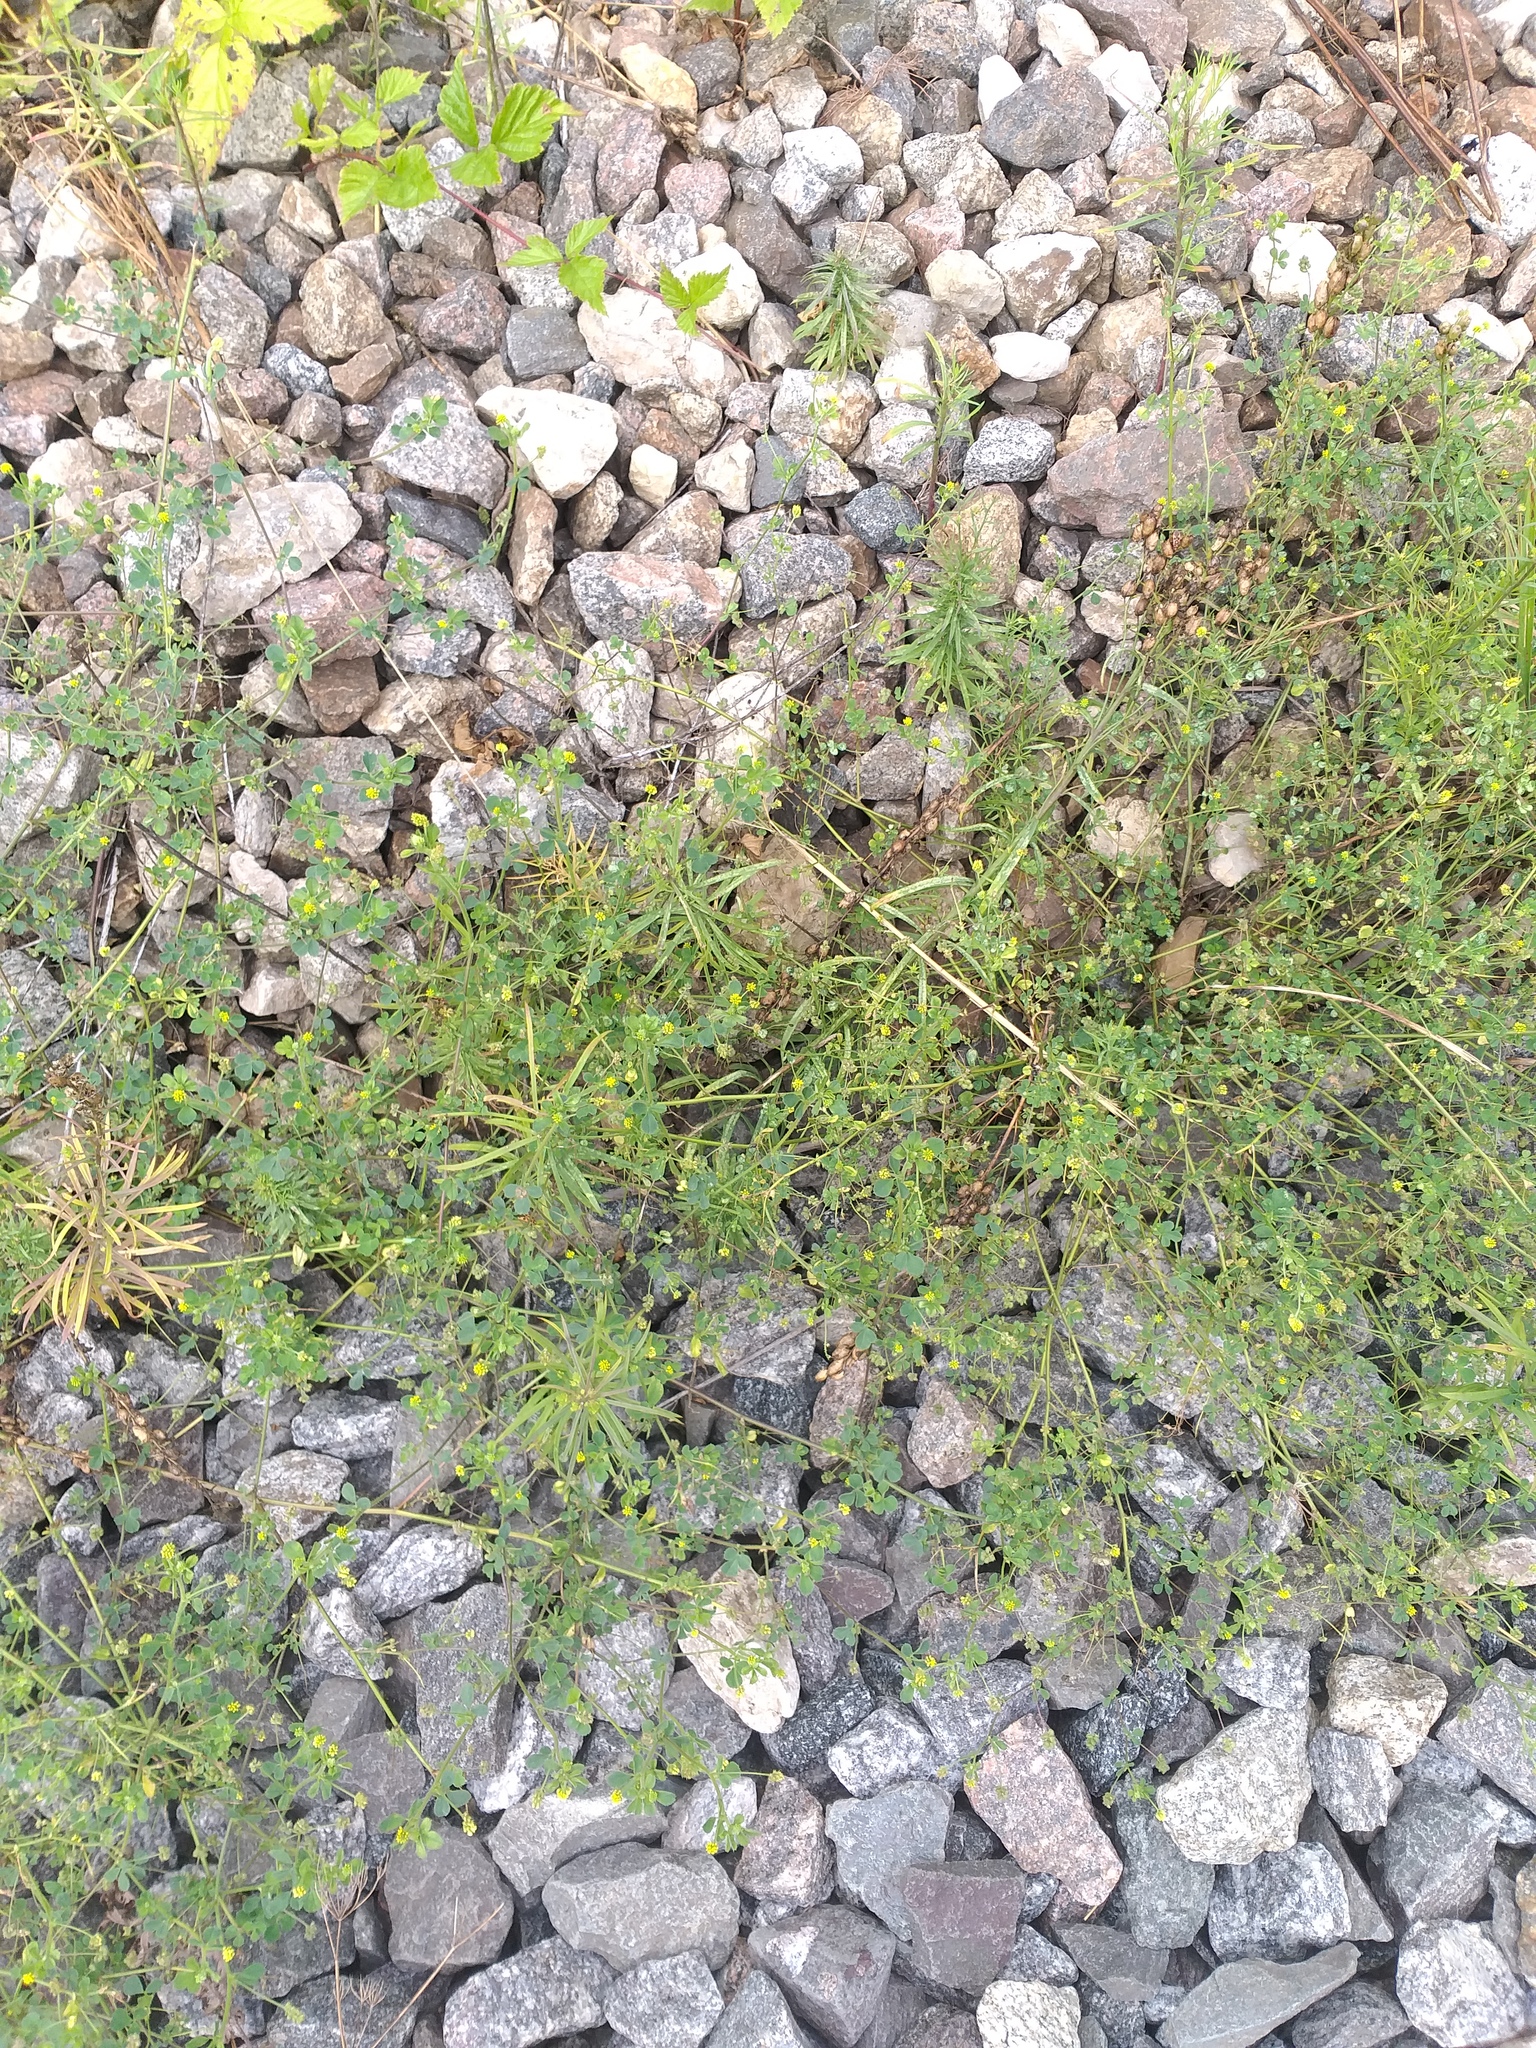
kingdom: Plantae
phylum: Tracheophyta
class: Magnoliopsida
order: Fabales
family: Fabaceae
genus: Medicago
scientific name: Medicago lupulina
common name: Black medick
